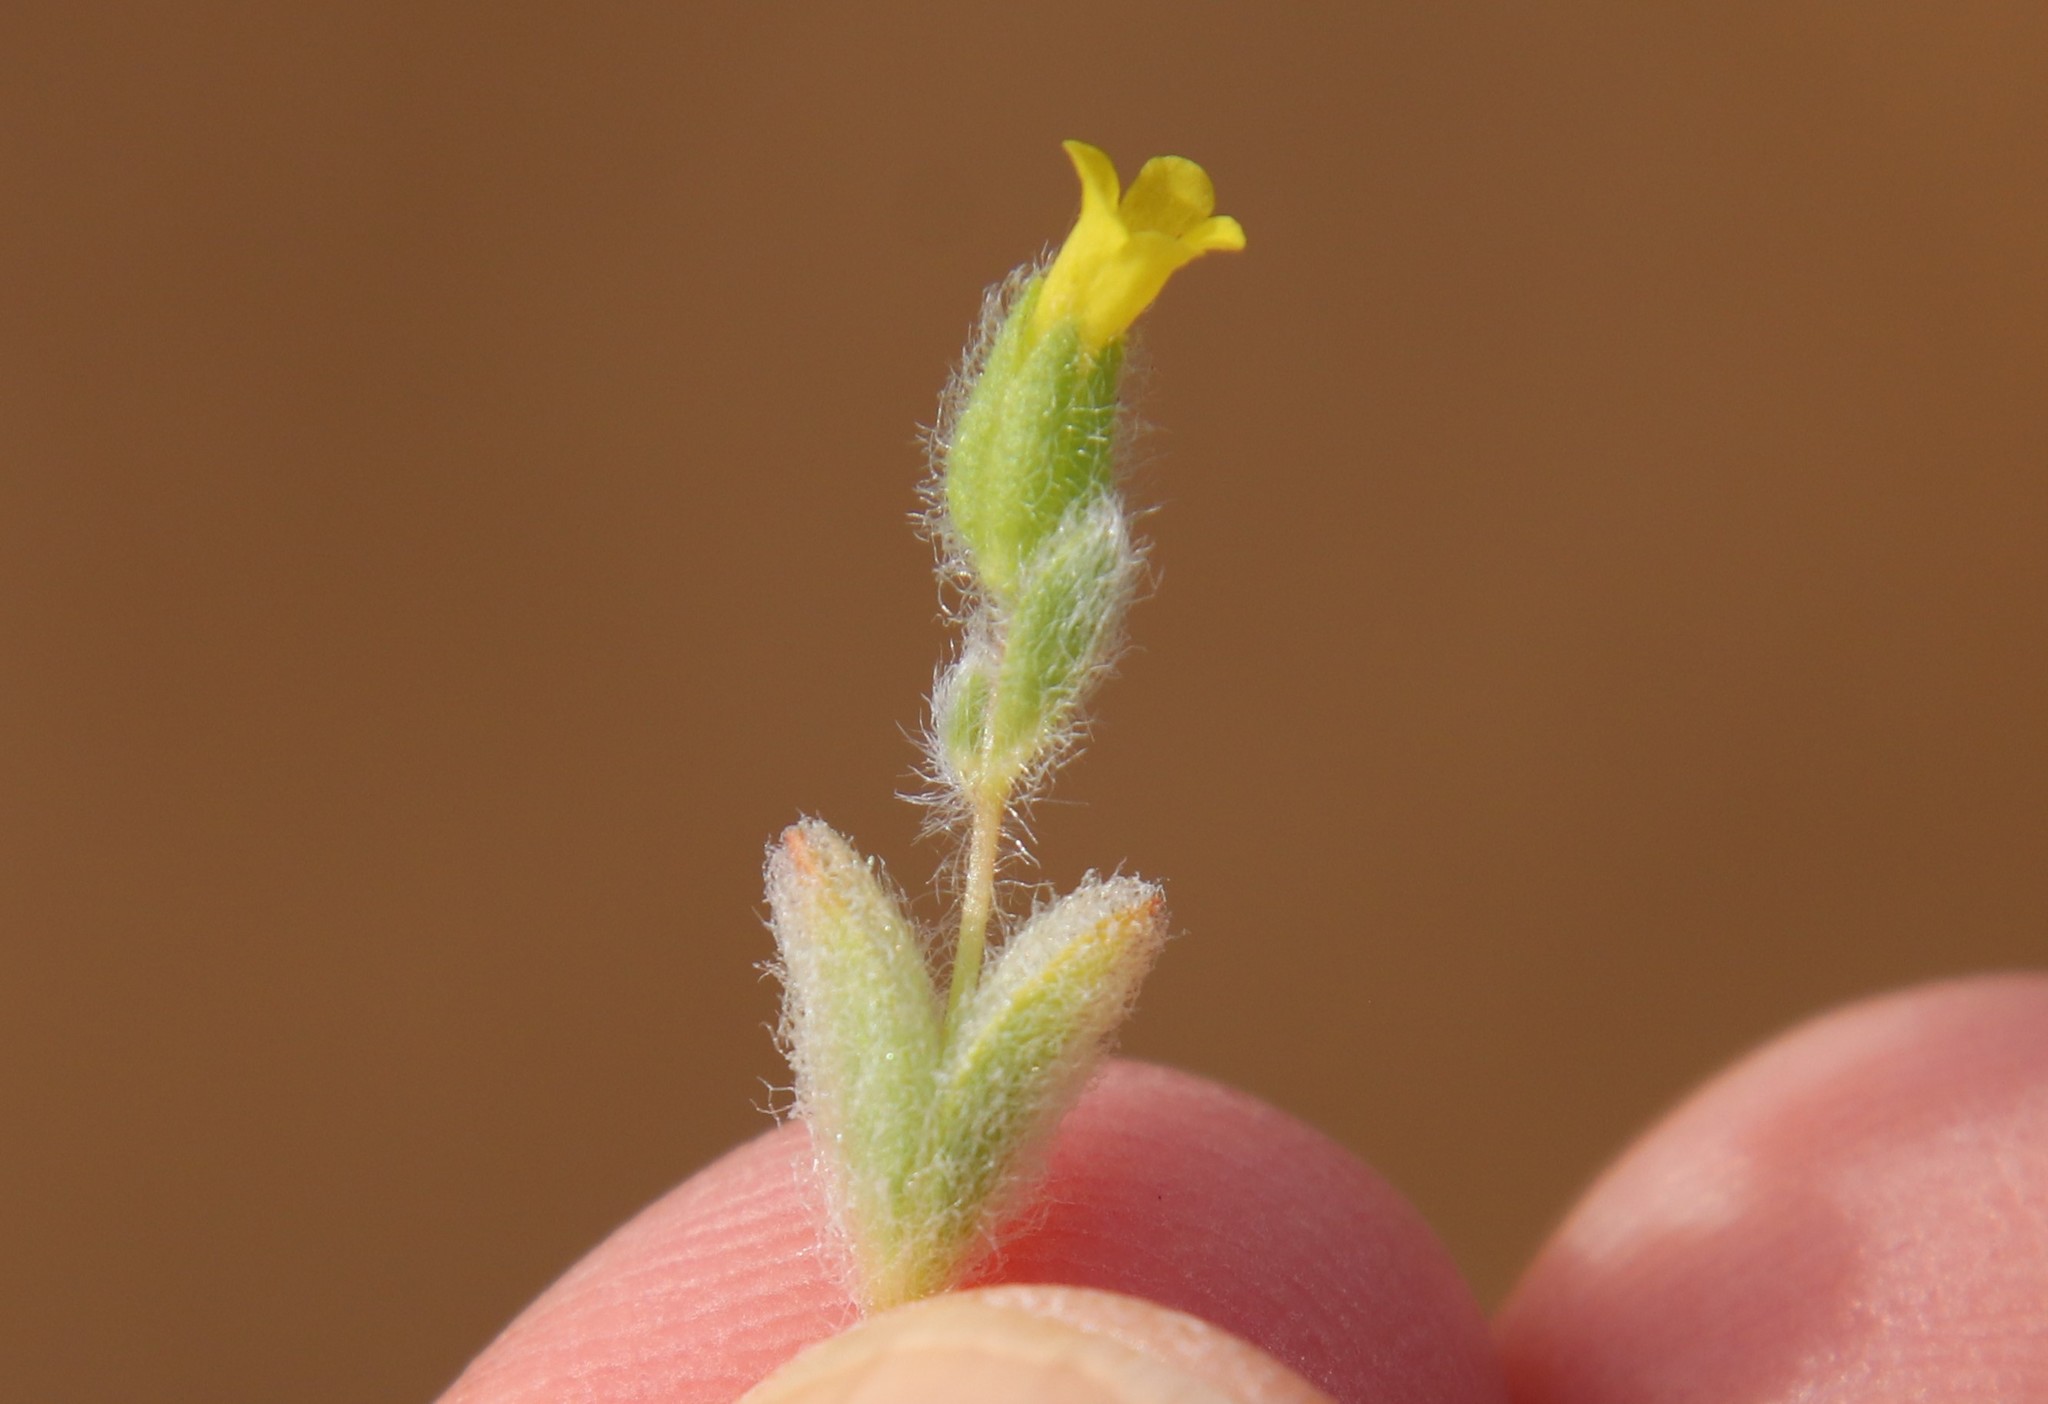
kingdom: Plantae
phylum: Tracheophyta
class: Magnoliopsida
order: Lamiales
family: Phrymaceae
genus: Mimetanthe
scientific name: Mimetanthe pilosa
